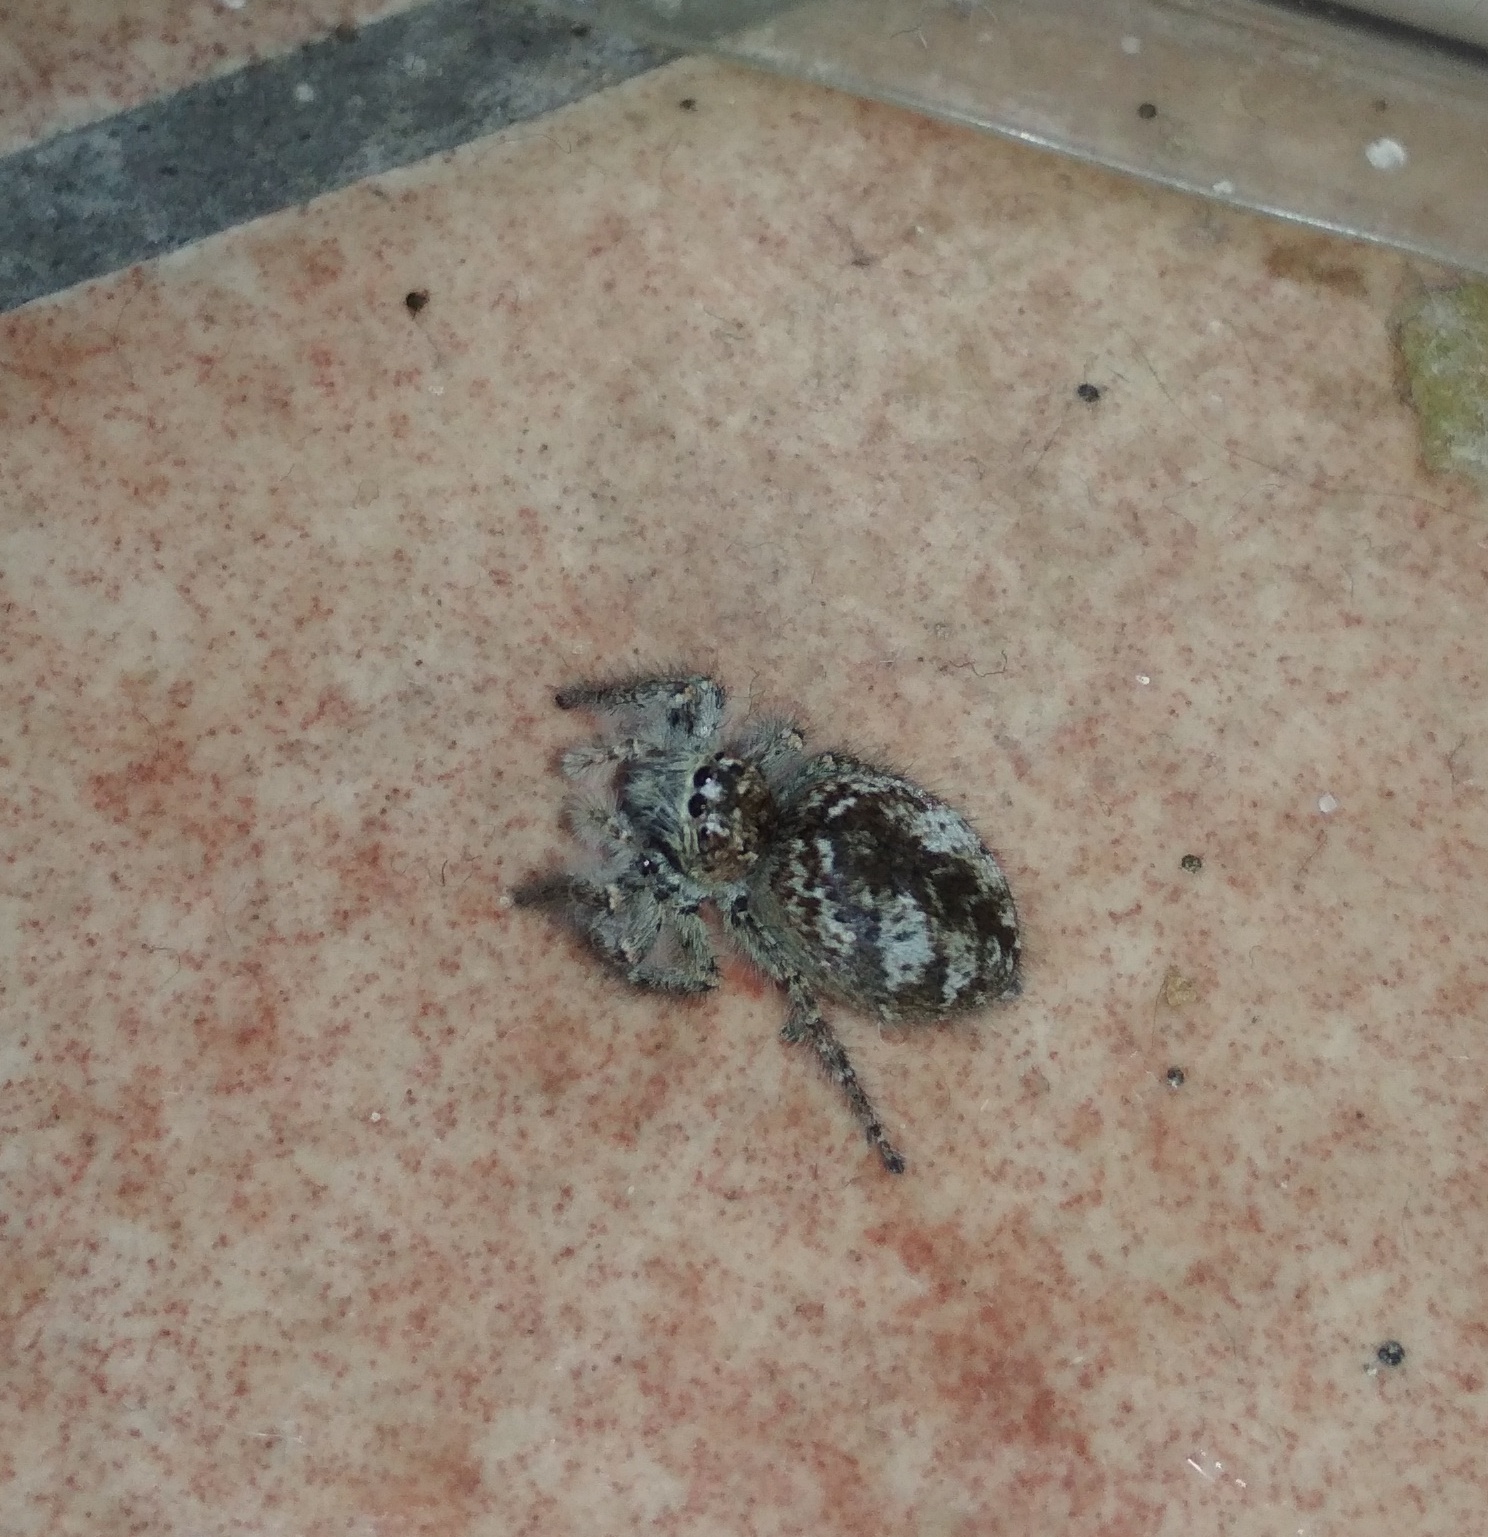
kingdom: Animalia
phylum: Arthropoda
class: Arachnida
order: Araneae
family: Salticidae
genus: Philaeus
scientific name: Philaeus chrysops
